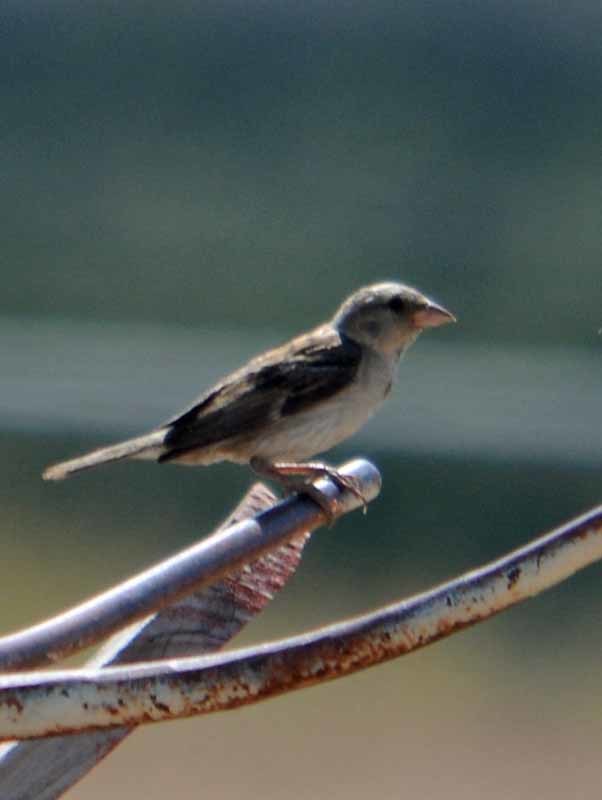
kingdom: Animalia
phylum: Chordata
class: Aves
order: Passeriformes
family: Passeridae
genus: Passer
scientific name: Passer domesticus
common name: House sparrow
